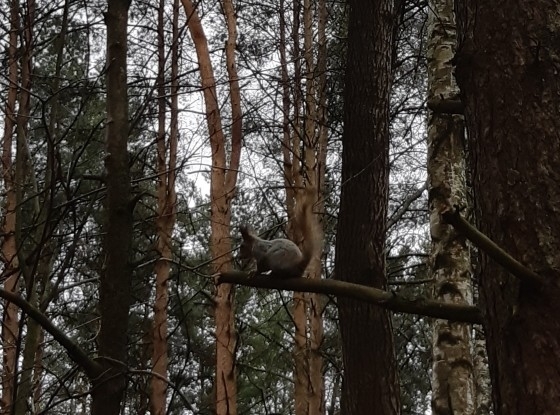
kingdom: Animalia
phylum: Chordata
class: Mammalia
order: Rodentia
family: Sciuridae
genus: Sciurus
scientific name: Sciurus vulgaris
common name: Eurasian red squirrel
